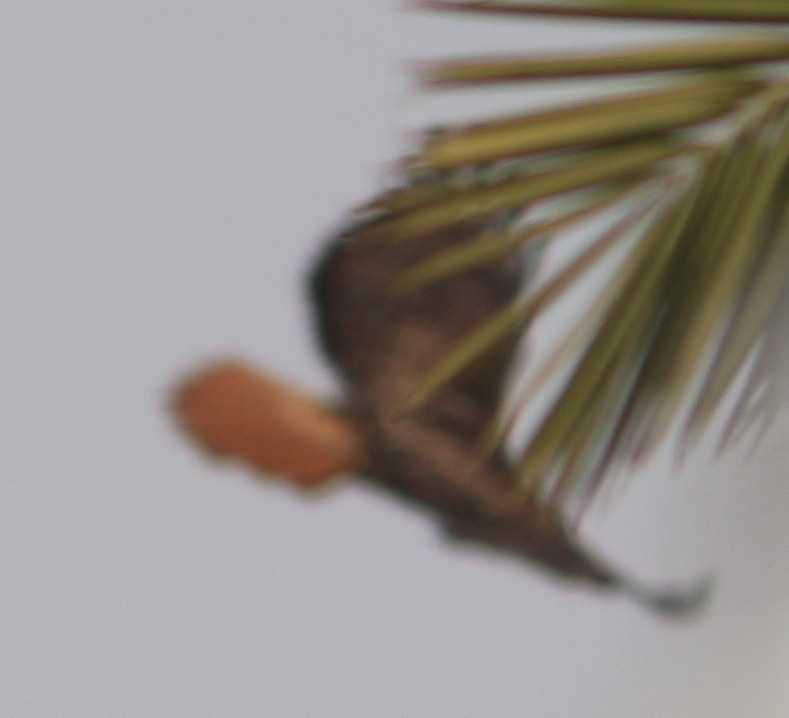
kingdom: Animalia
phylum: Chordata
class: Aves
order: Accipitriformes
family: Accipitridae
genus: Buteo
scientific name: Buteo jamaicensis
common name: Red-tailed hawk
